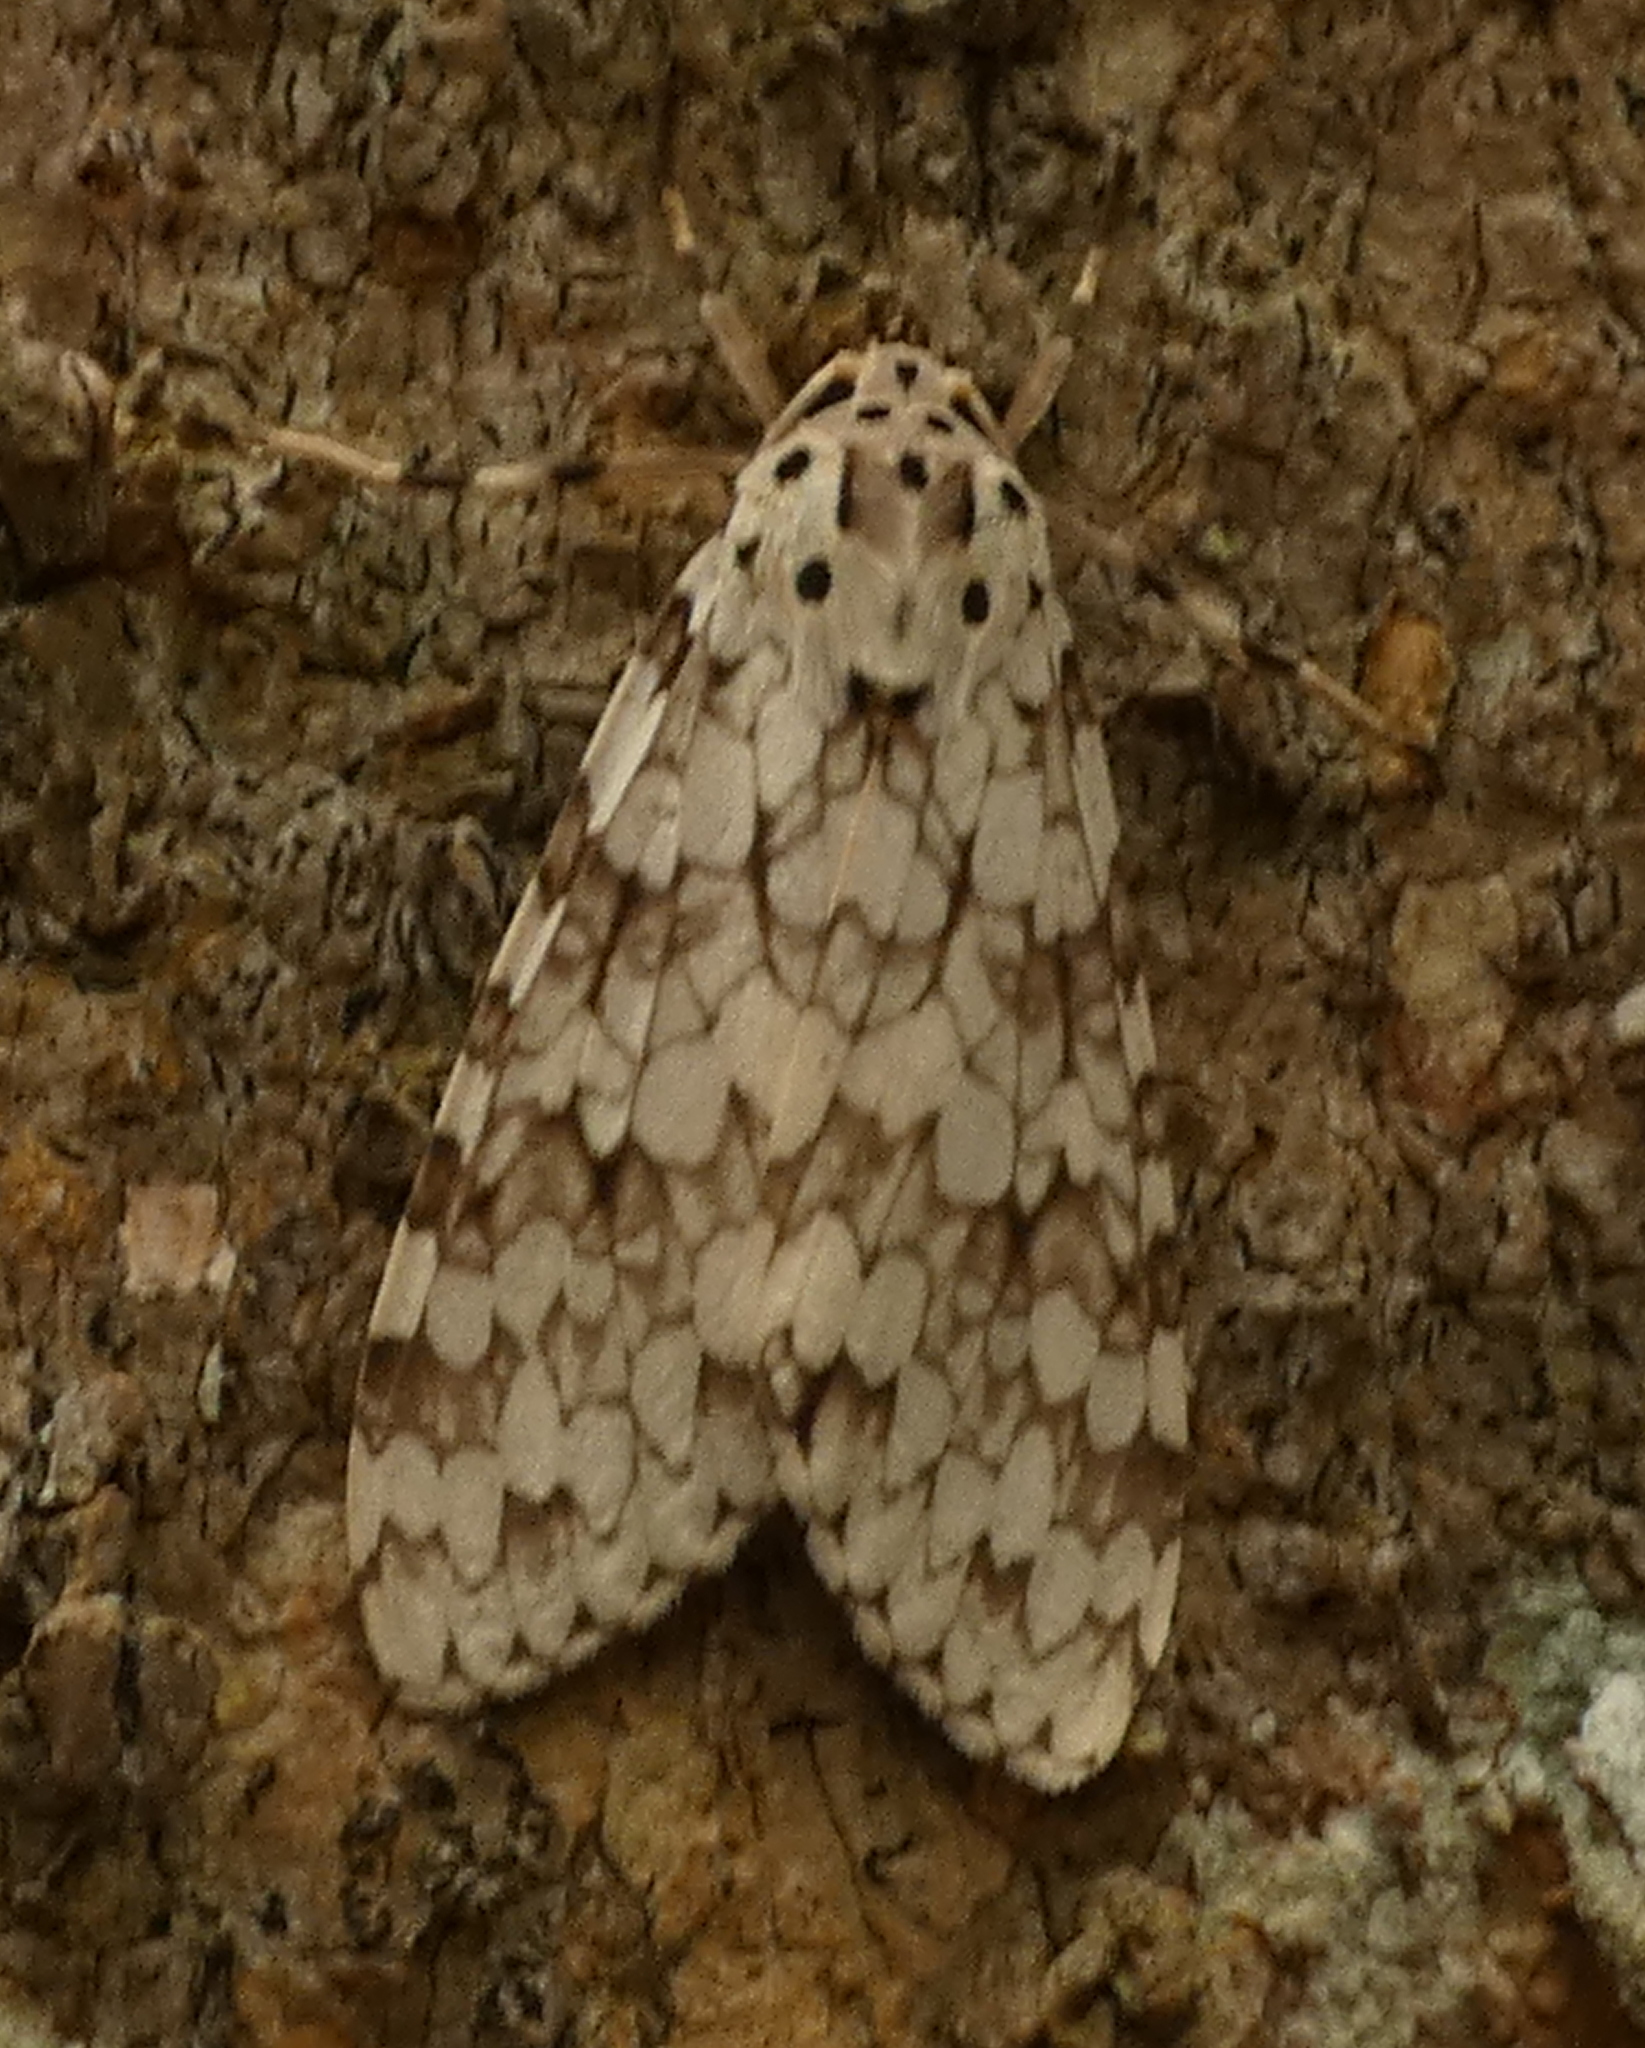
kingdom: Animalia
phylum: Arthropoda
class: Insecta
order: Lepidoptera
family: Erebidae
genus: Carales
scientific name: Carales astur
